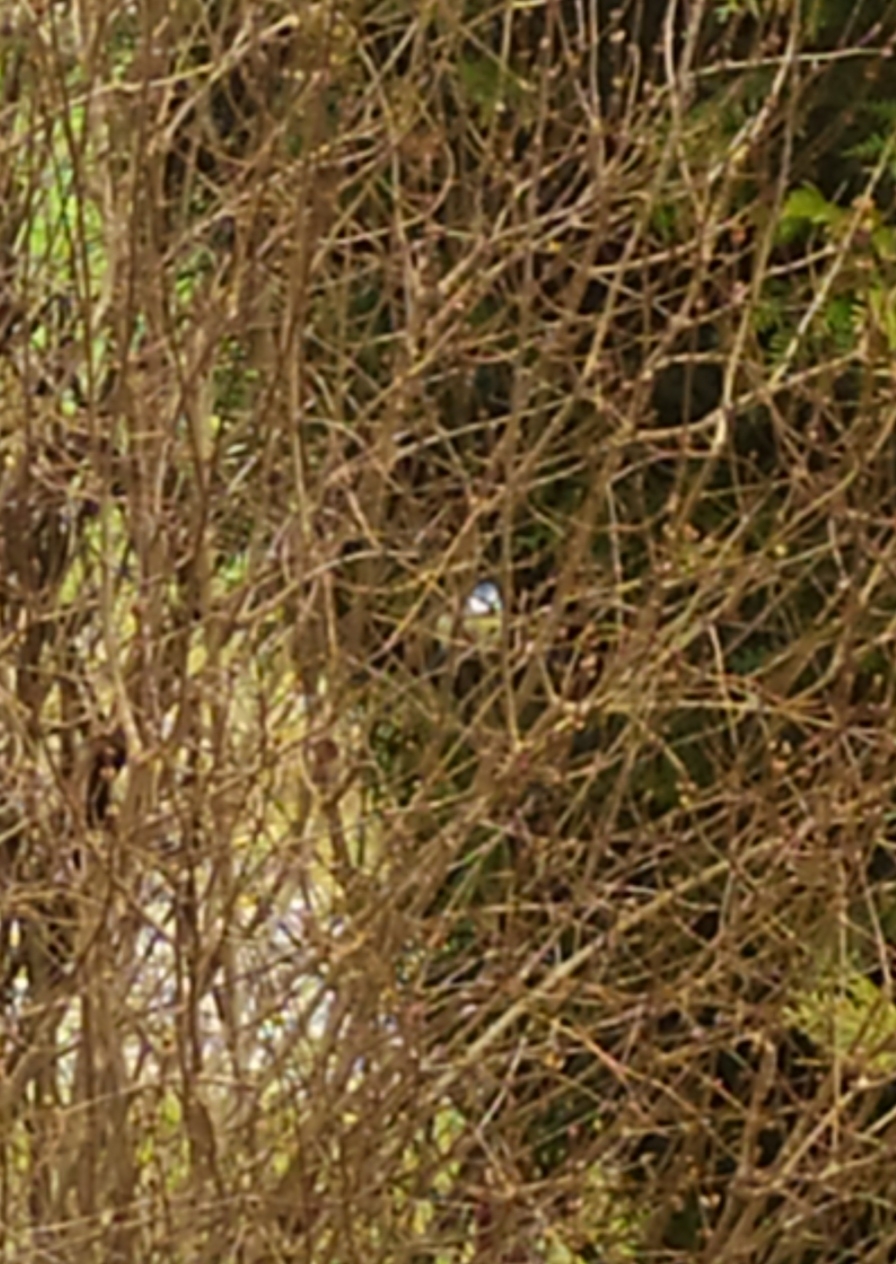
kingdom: Animalia
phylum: Chordata
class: Aves
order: Passeriformes
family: Paridae
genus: Cyanistes
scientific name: Cyanistes caeruleus
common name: Eurasian blue tit
